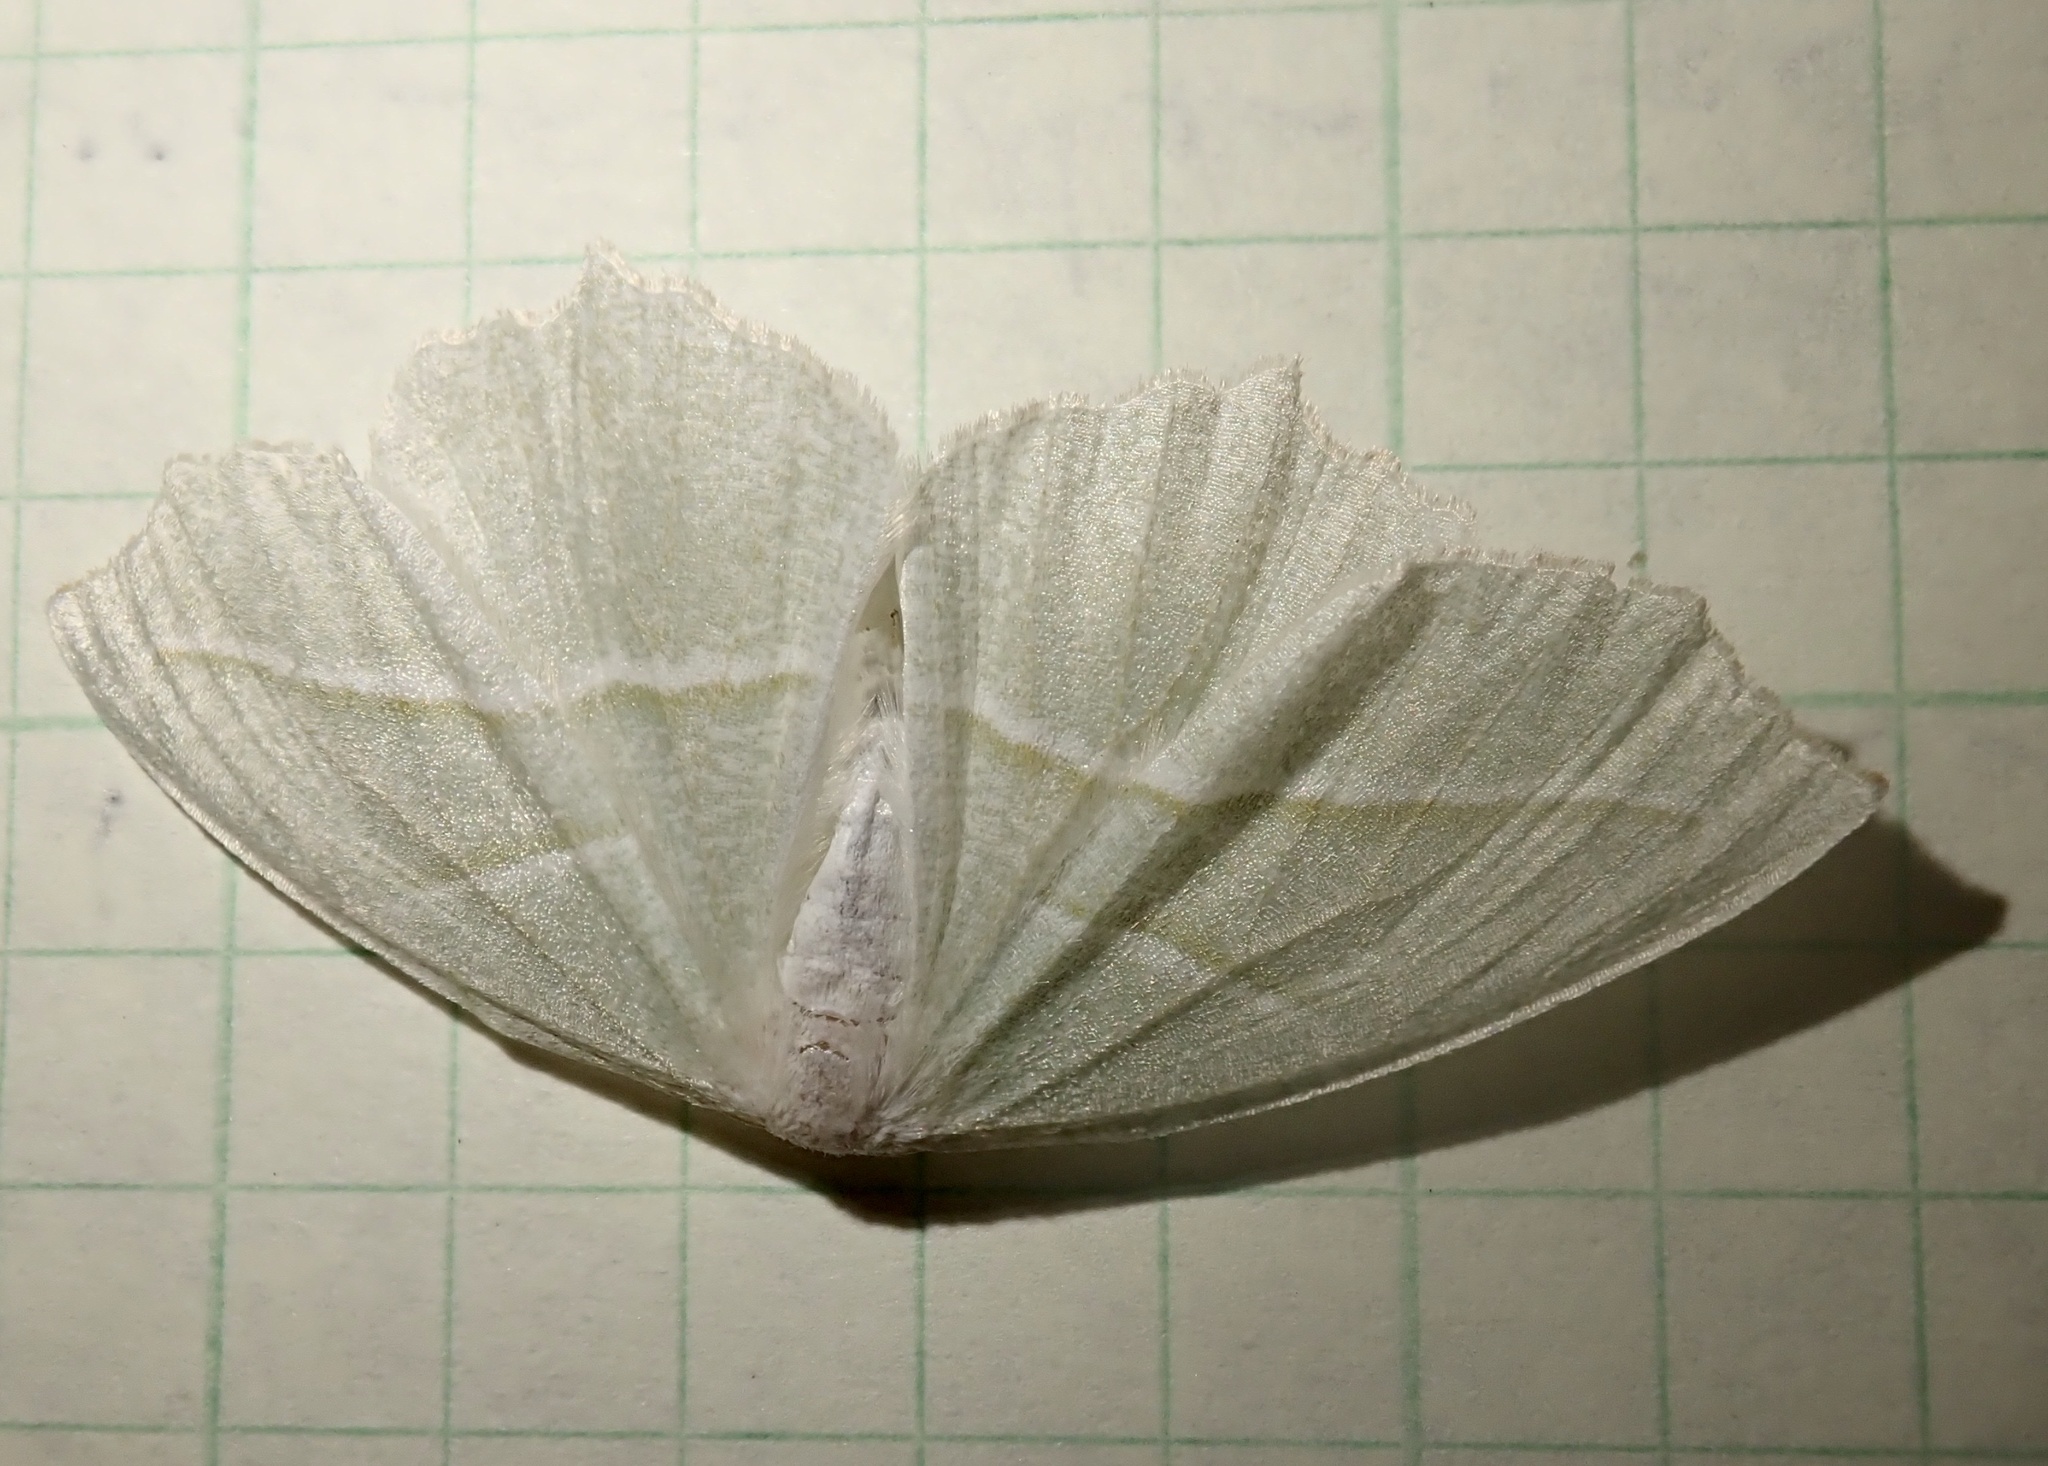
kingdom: Animalia
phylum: Arthropoda
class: Insecta
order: Lepidoptera
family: Geometridae
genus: Campaea
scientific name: Campaea perlata
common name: Fringed looper
